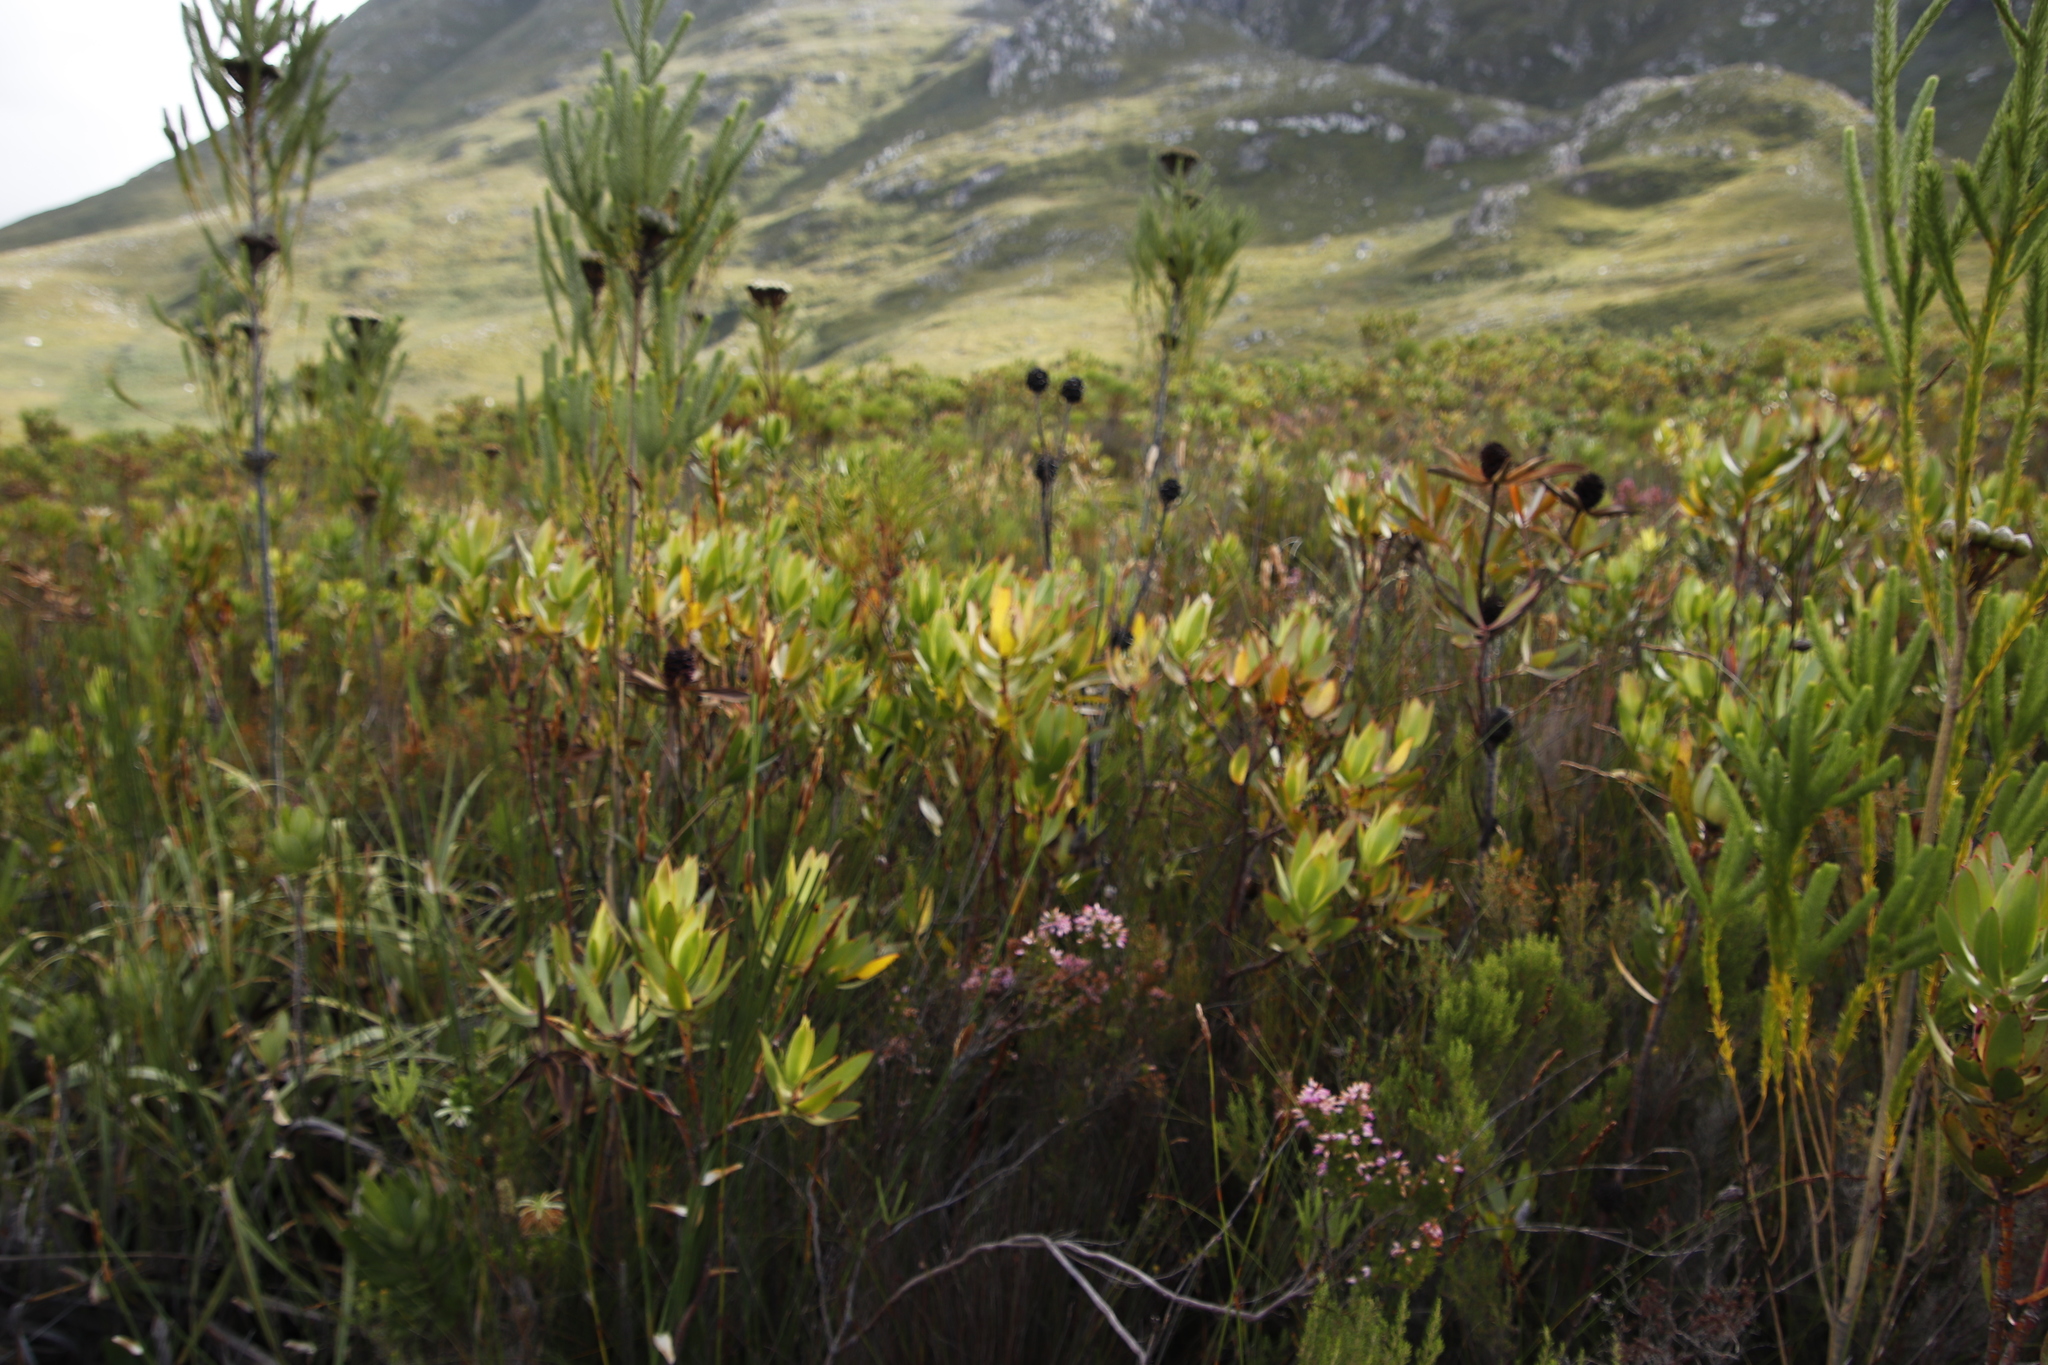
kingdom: Plantae
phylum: Tracheophyta
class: Magnoliopsida
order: Proteales
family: Proteaceae
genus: Leucadendron
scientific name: Leucadendron gandogeri
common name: Broad-leaf conebush
